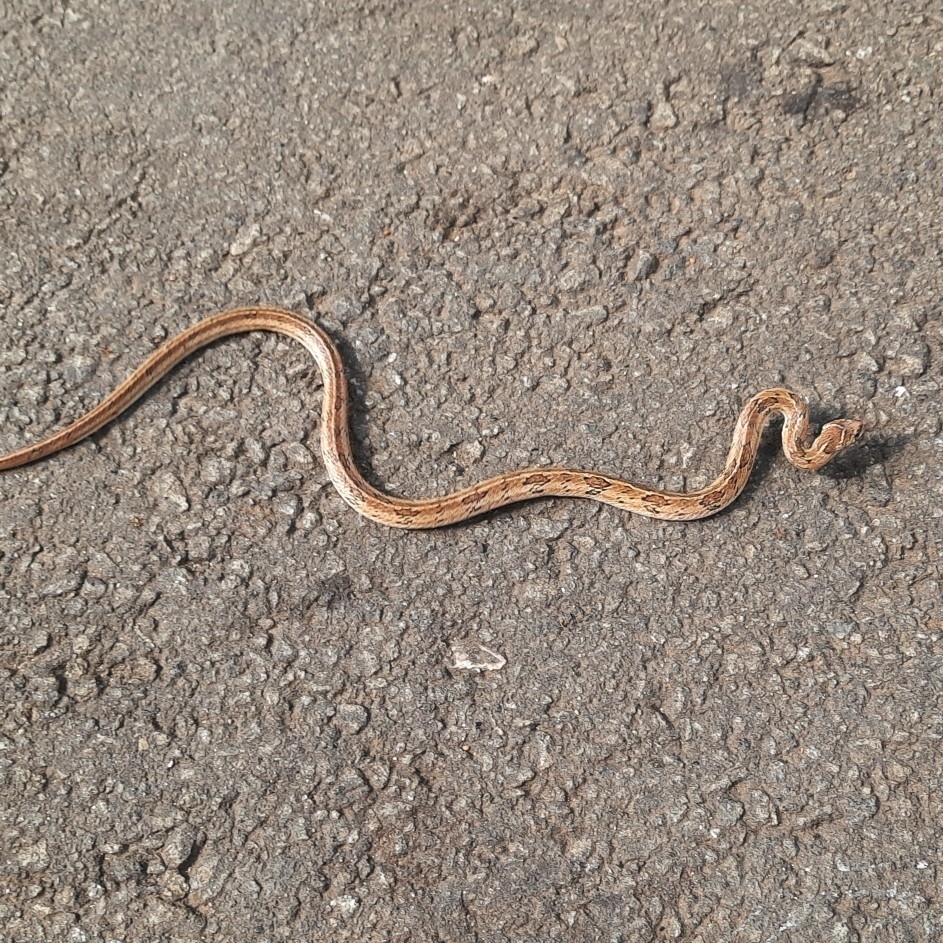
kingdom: Animalia
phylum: Chordata
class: Squamata
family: Colubridae
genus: Oligodon
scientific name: Oligodon taeniolatus
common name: Loos snake
